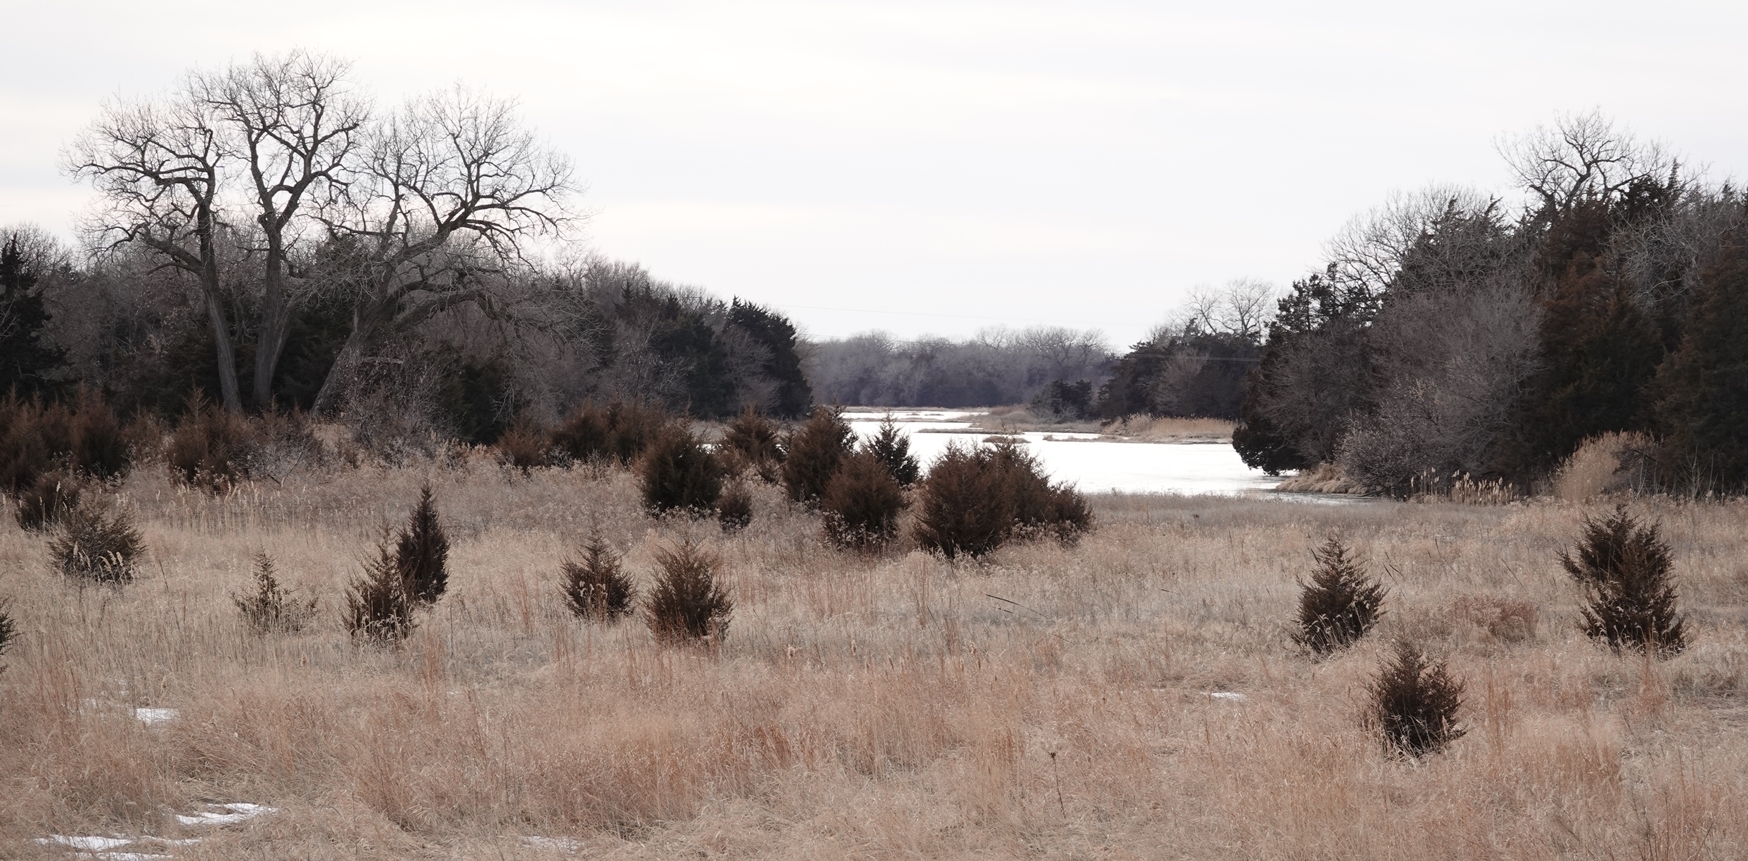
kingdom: Plantae
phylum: Tracheophyta
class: Pinopsida
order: Pinales
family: Cupressaceae
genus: Juniperus
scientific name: Juniperus virginiana
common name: Red juniper
